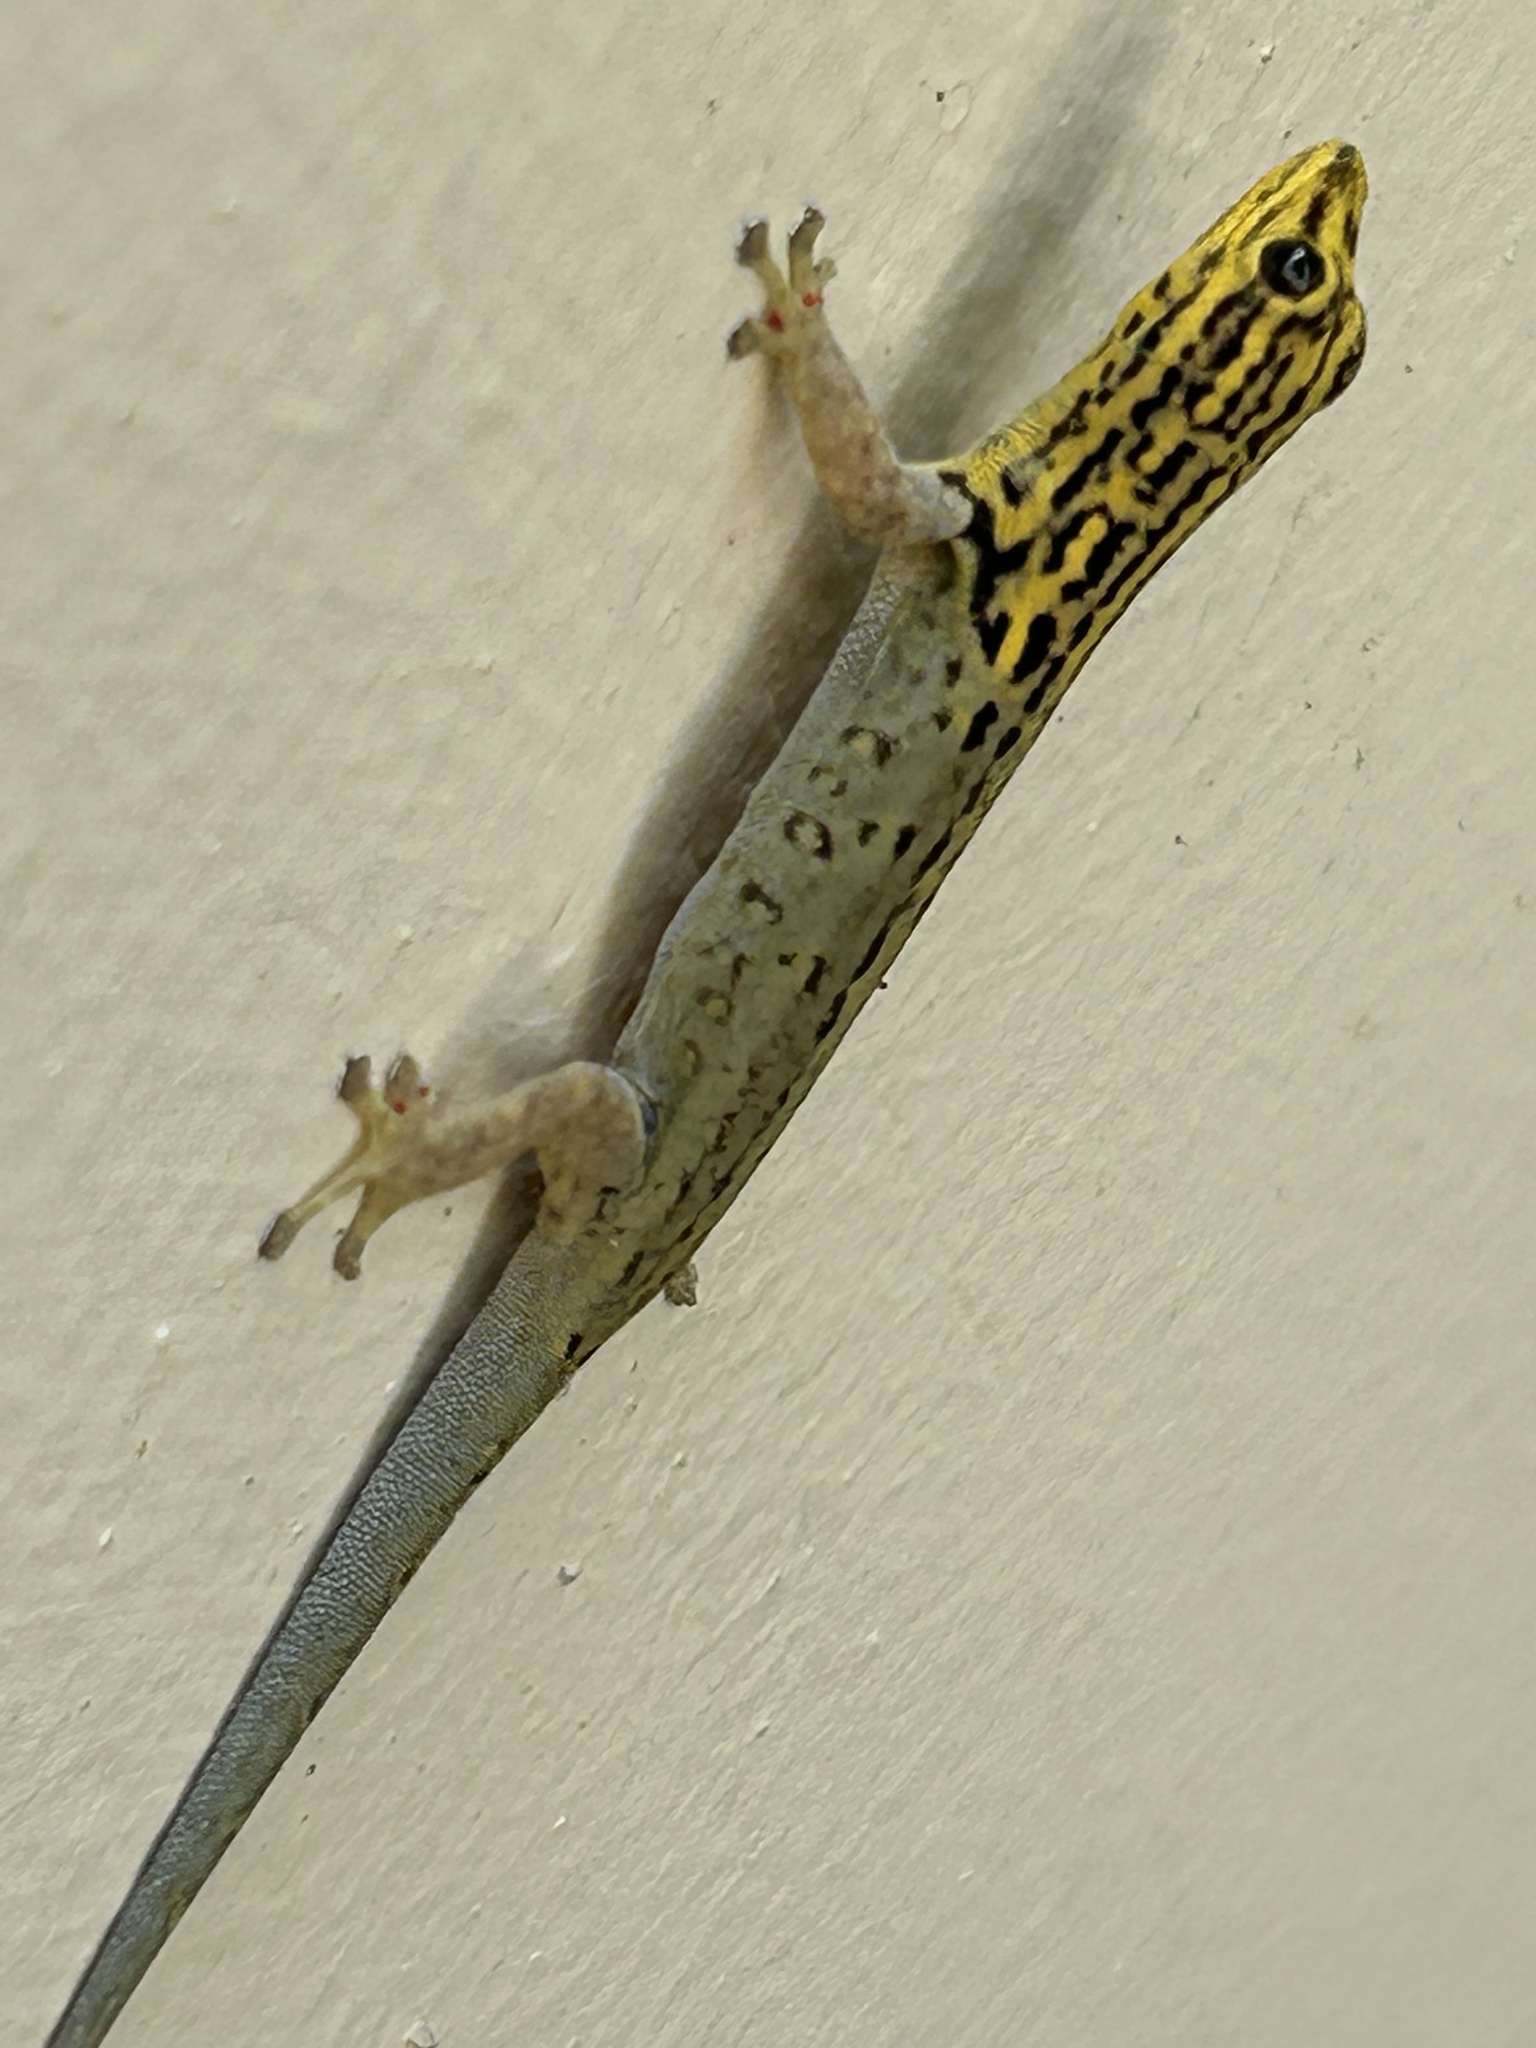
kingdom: Animalia
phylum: Chordata
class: Squamata
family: Gekkonidae
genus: Lygodactylus
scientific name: Lygodactylus picturatus
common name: Painted dwarf gecko
